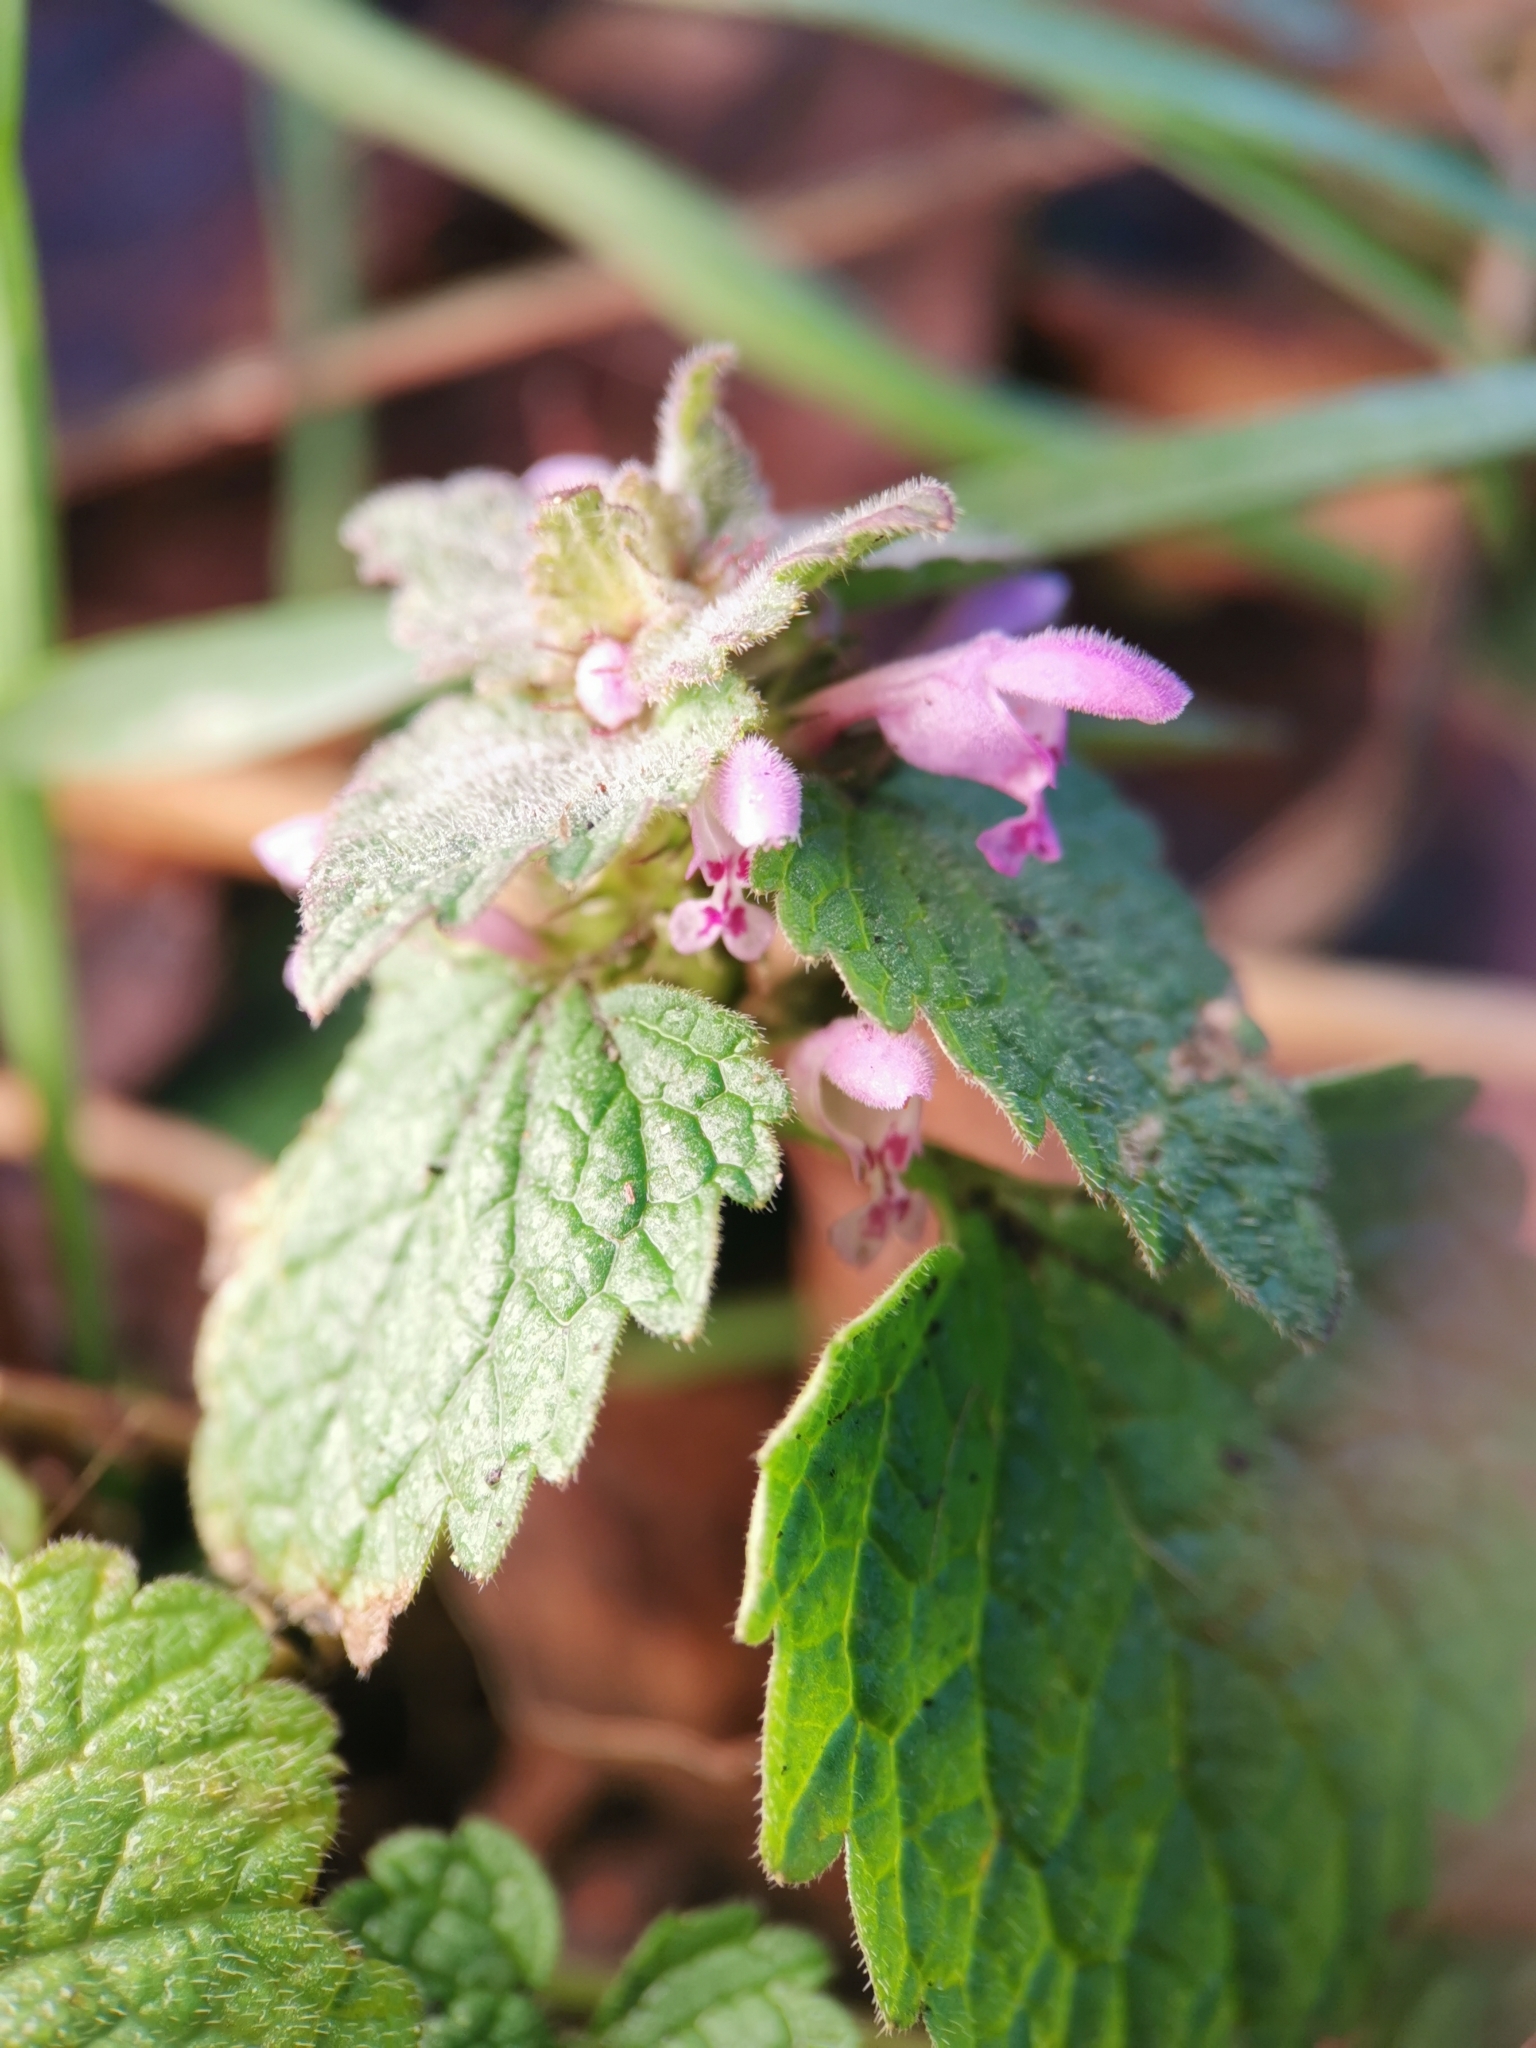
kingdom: Plantae
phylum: Tracheophyta
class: Magnoliopsida
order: Lamiales
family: Lamiaceae
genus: Lamium
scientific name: Lamium purpureum
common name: Red dead-nettle
